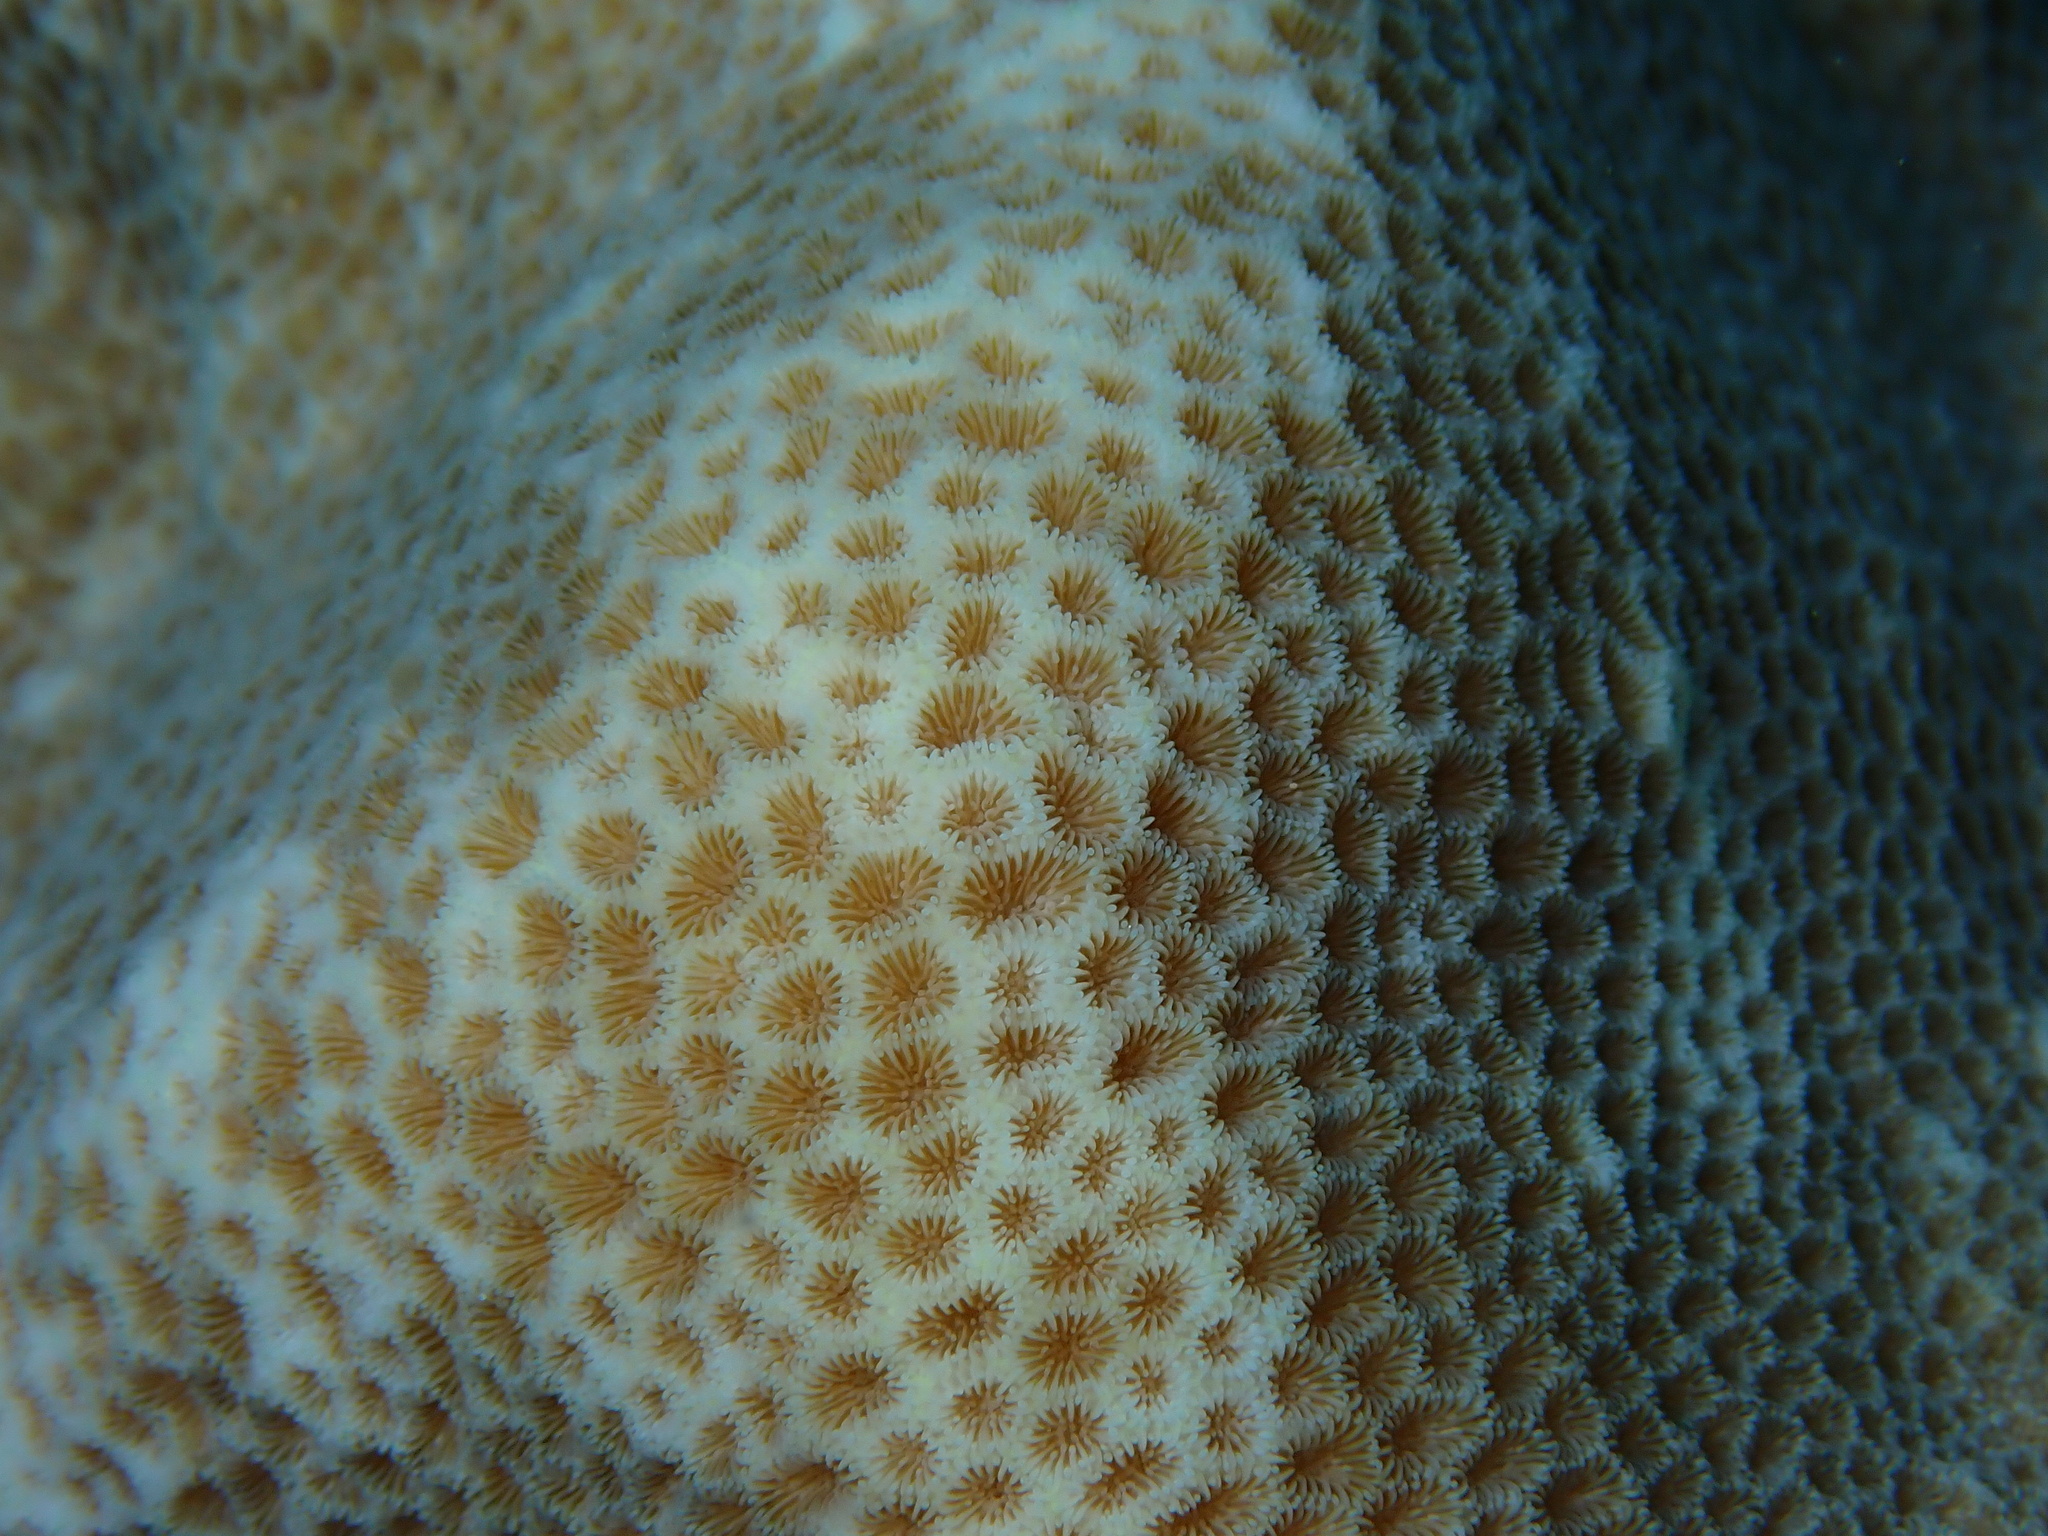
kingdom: Animalia
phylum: Cnidaria
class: Anthozoa
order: Scleractinia
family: Euphylliidae
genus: Coeloseris
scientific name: Coeloseris mayeri
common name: Tombstone coral
